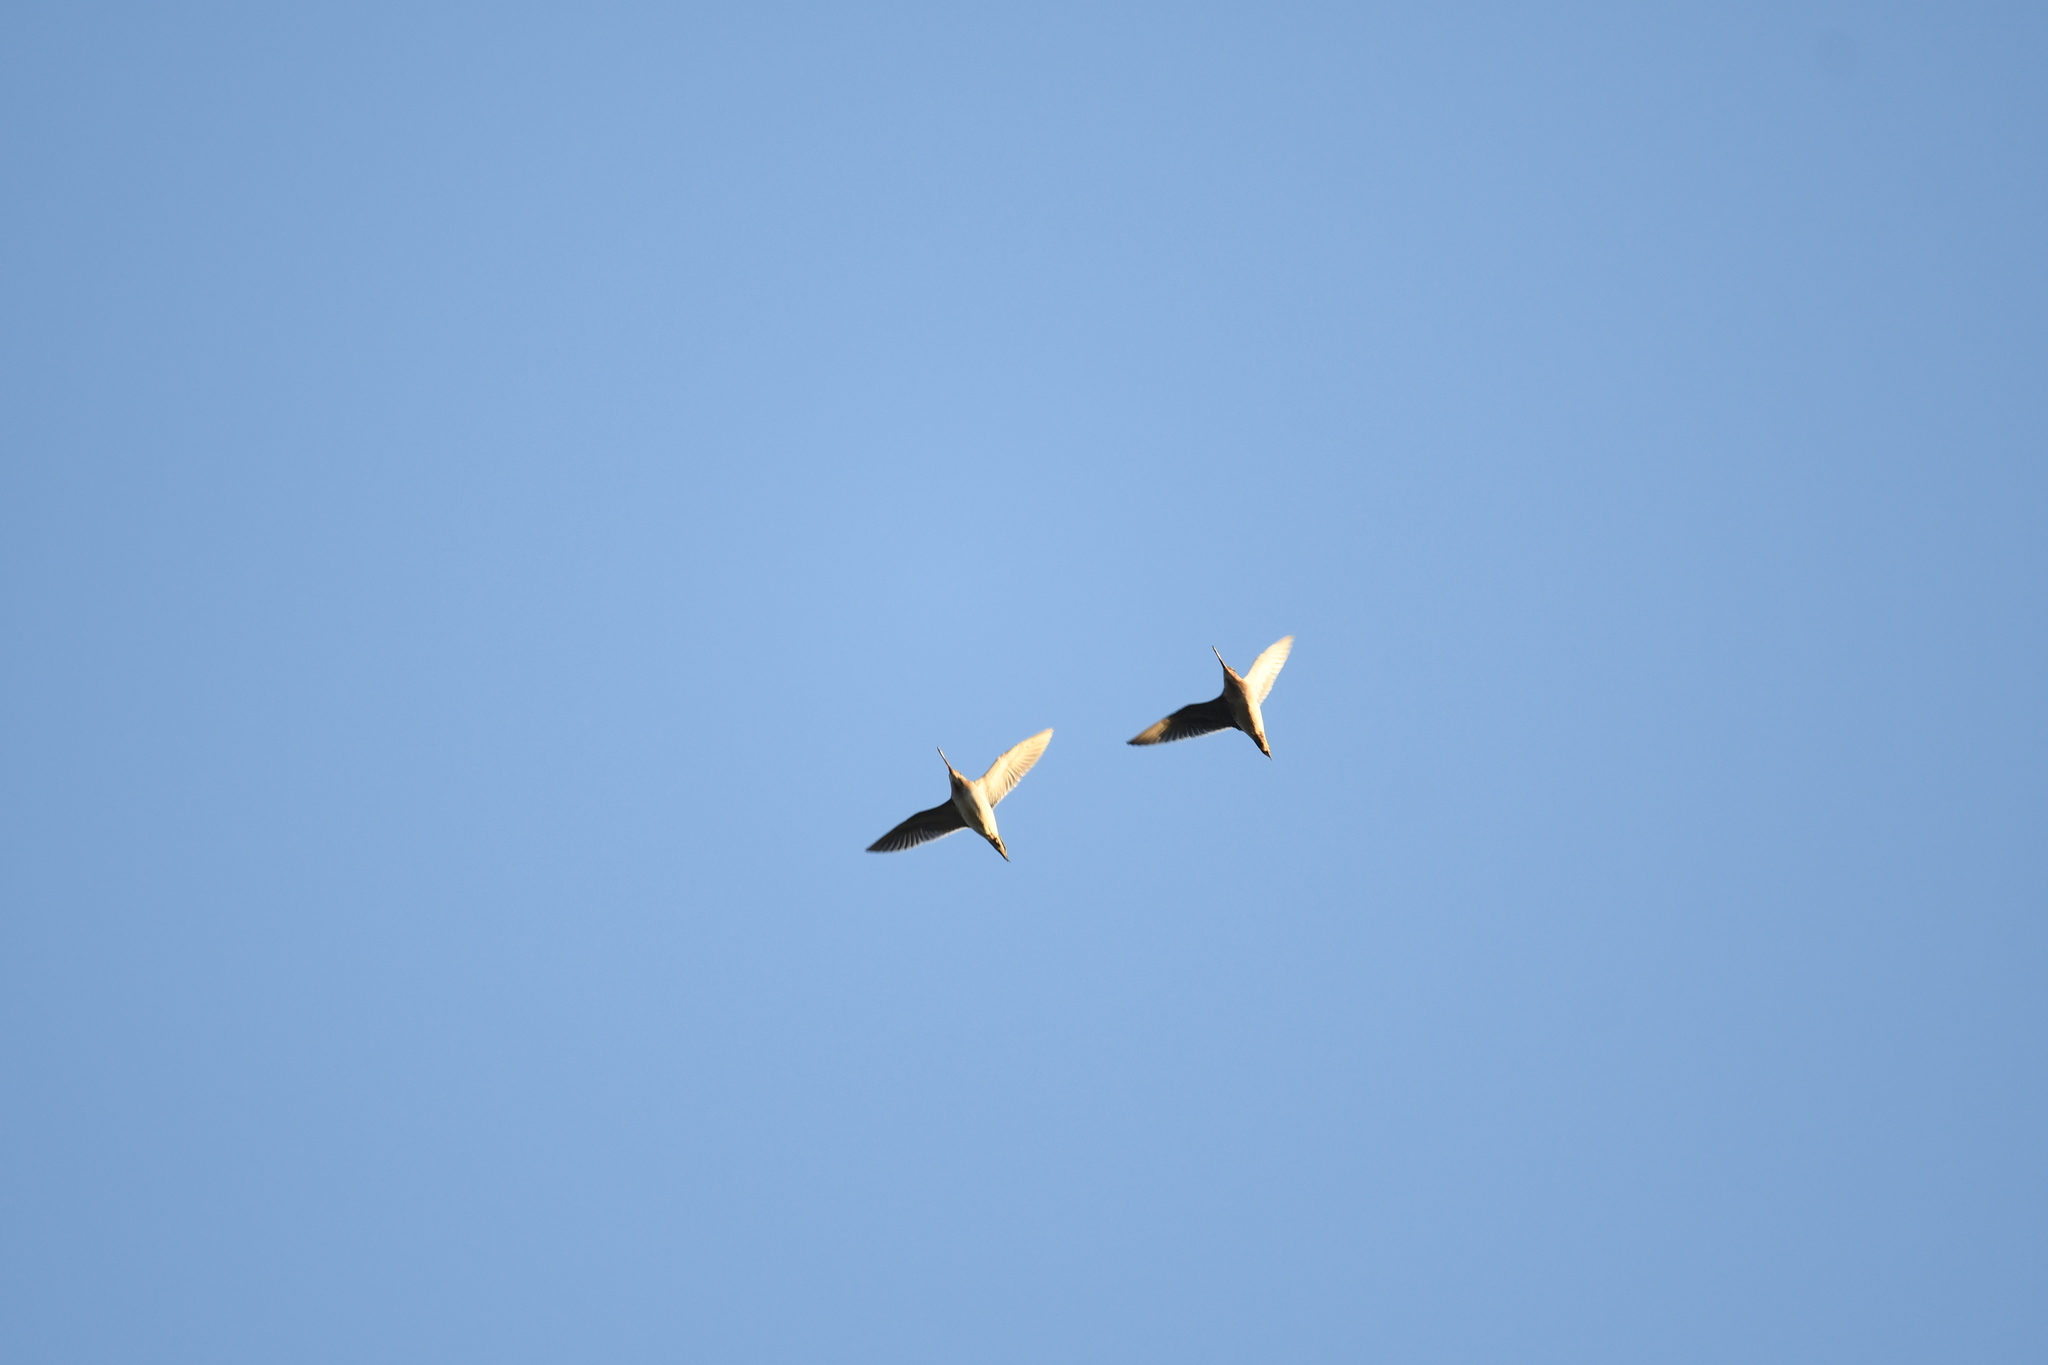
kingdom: Animalia
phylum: Chordata
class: Aves
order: Charadriiformes
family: Scolopacidae
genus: Gallinago
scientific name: Gallinago gallinago
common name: Common snipe
